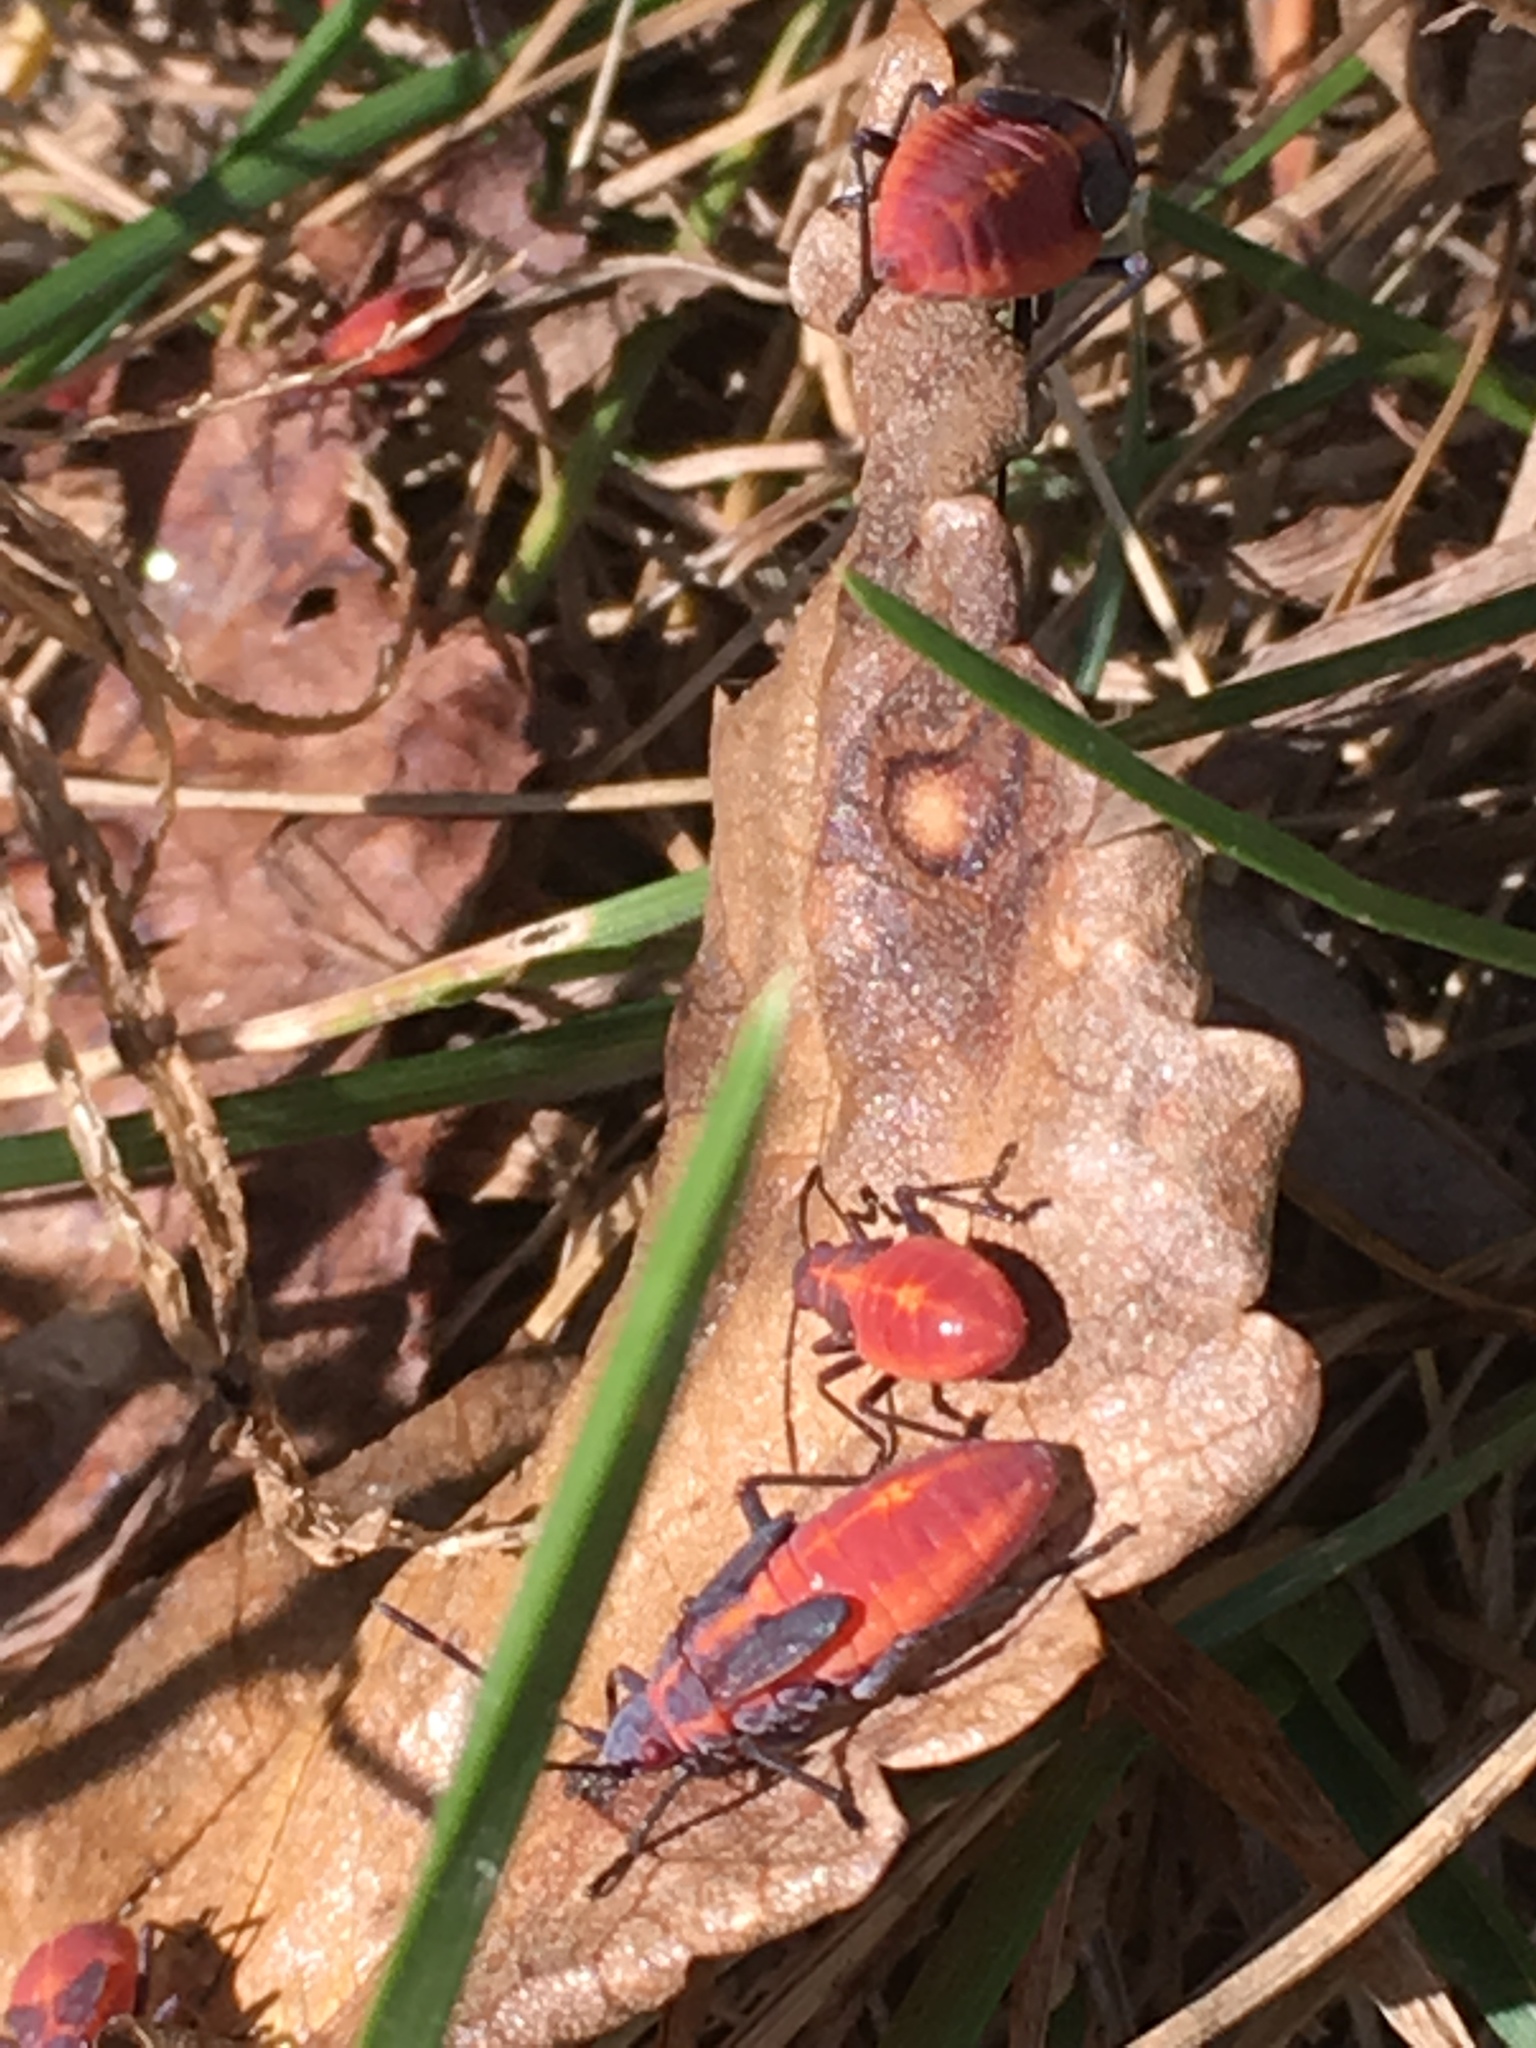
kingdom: Animalia
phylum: Arthropoda
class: Insecta
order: Hemiptera
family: Rhopalidae
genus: Boisea
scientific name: Boisea trivittata
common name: Boxelder bug
